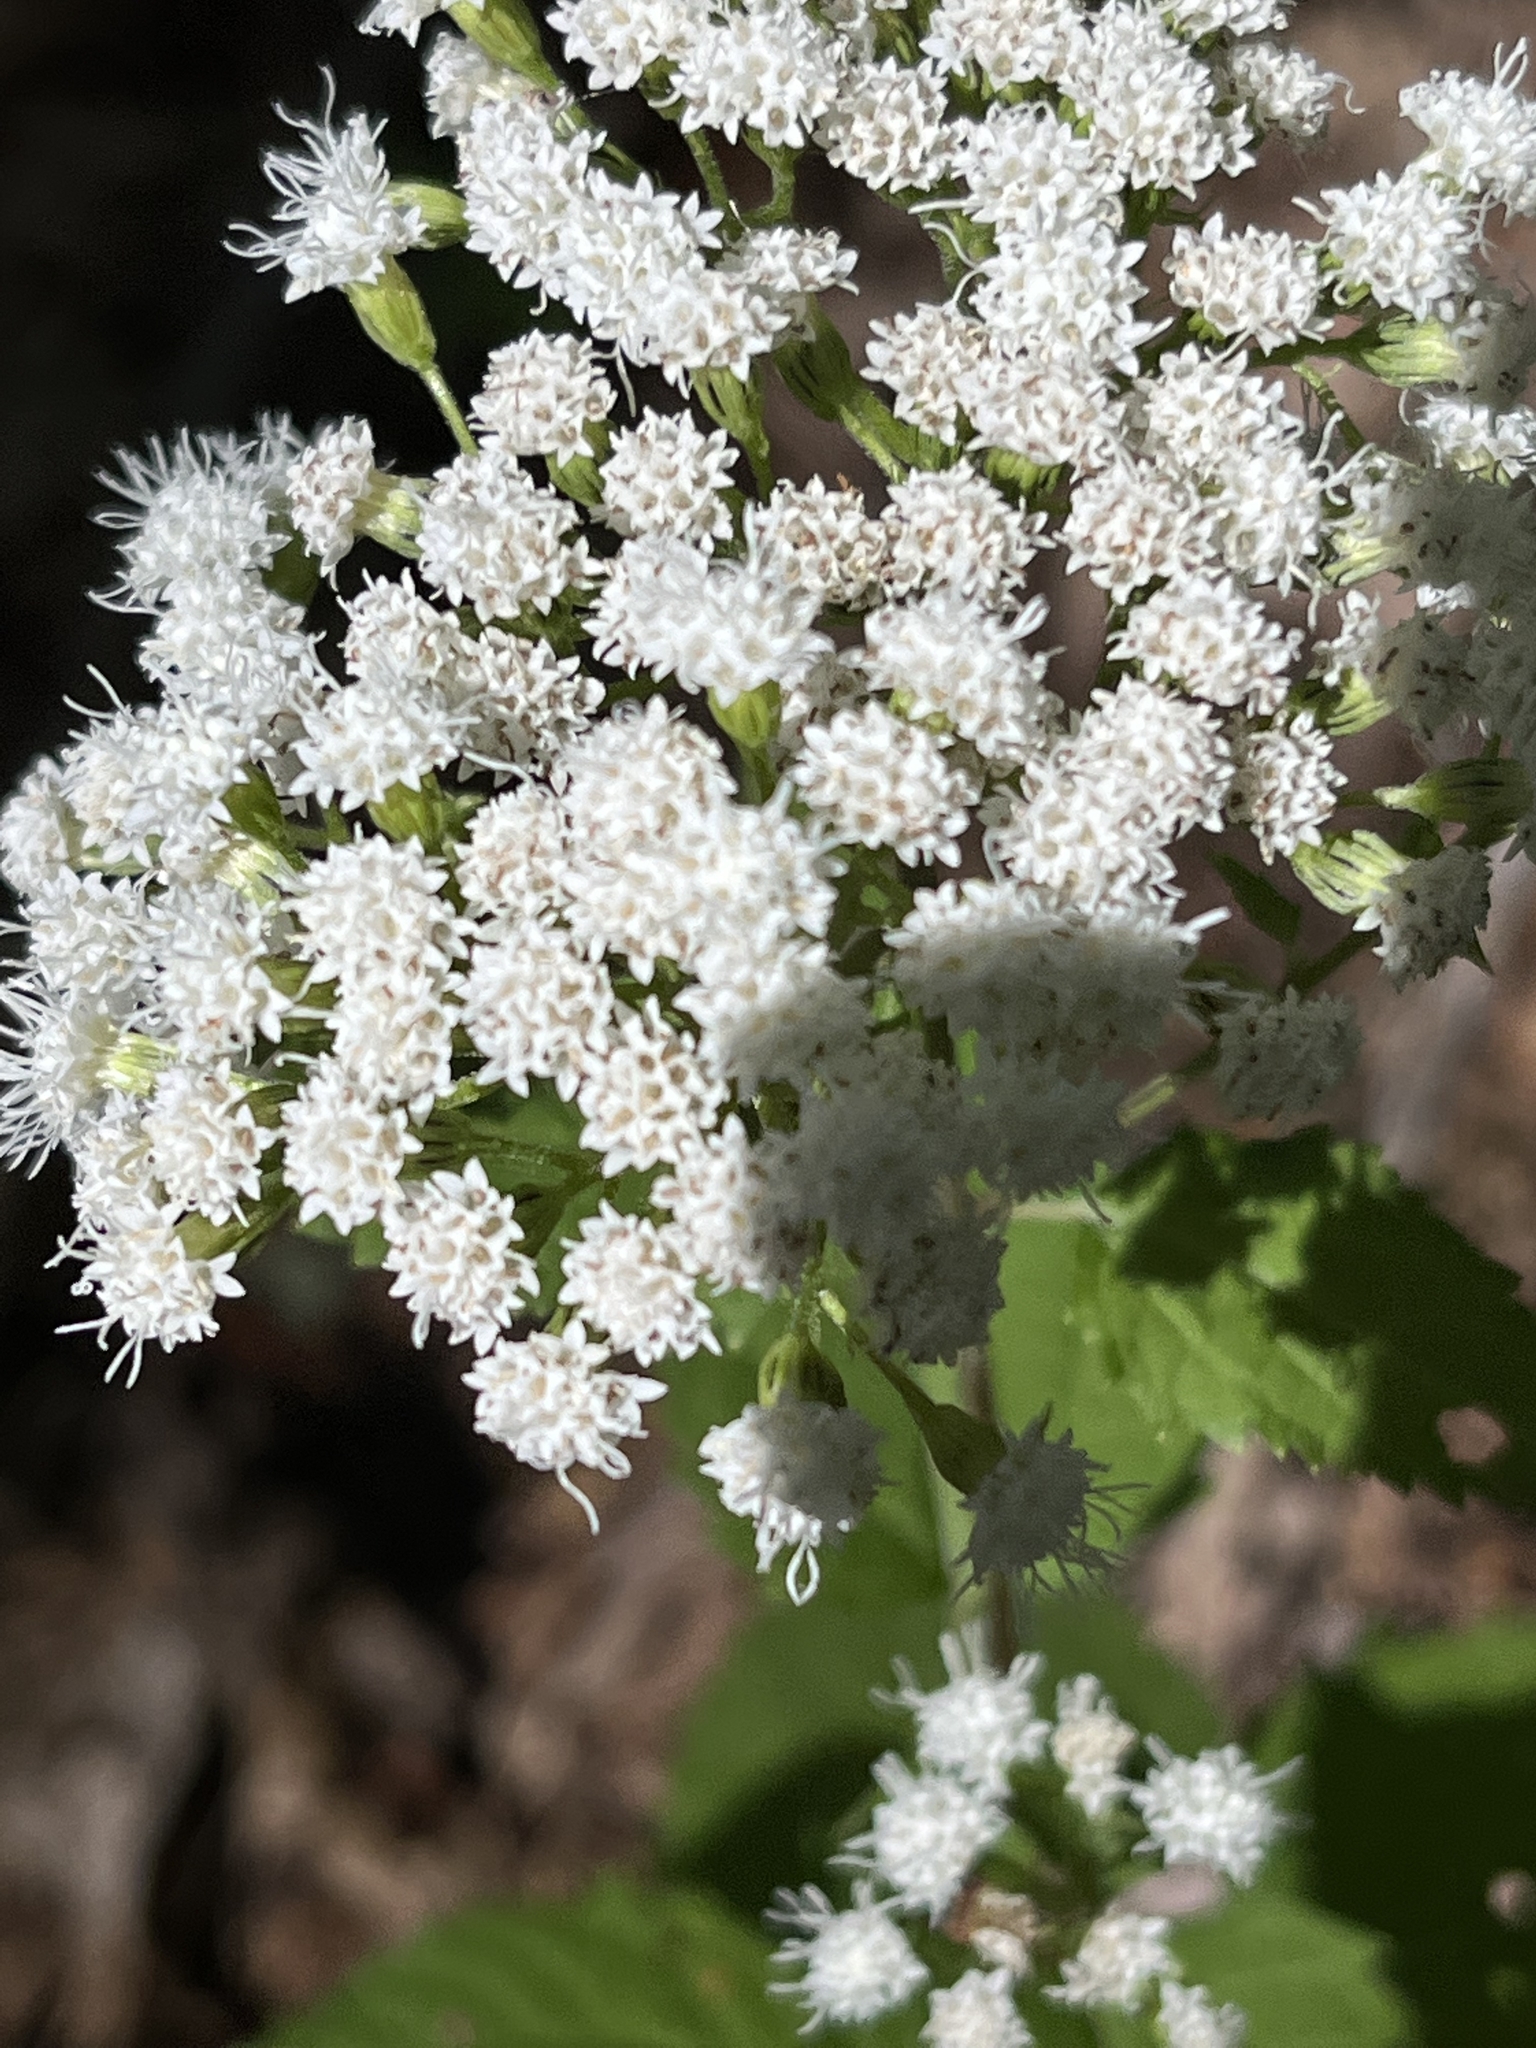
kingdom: Plantae
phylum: Tracheophyta
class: Magnoliopsida
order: Asterales
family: Asteraceae
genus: Ageratina
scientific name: Ageratina altissima
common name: White snakeroot
